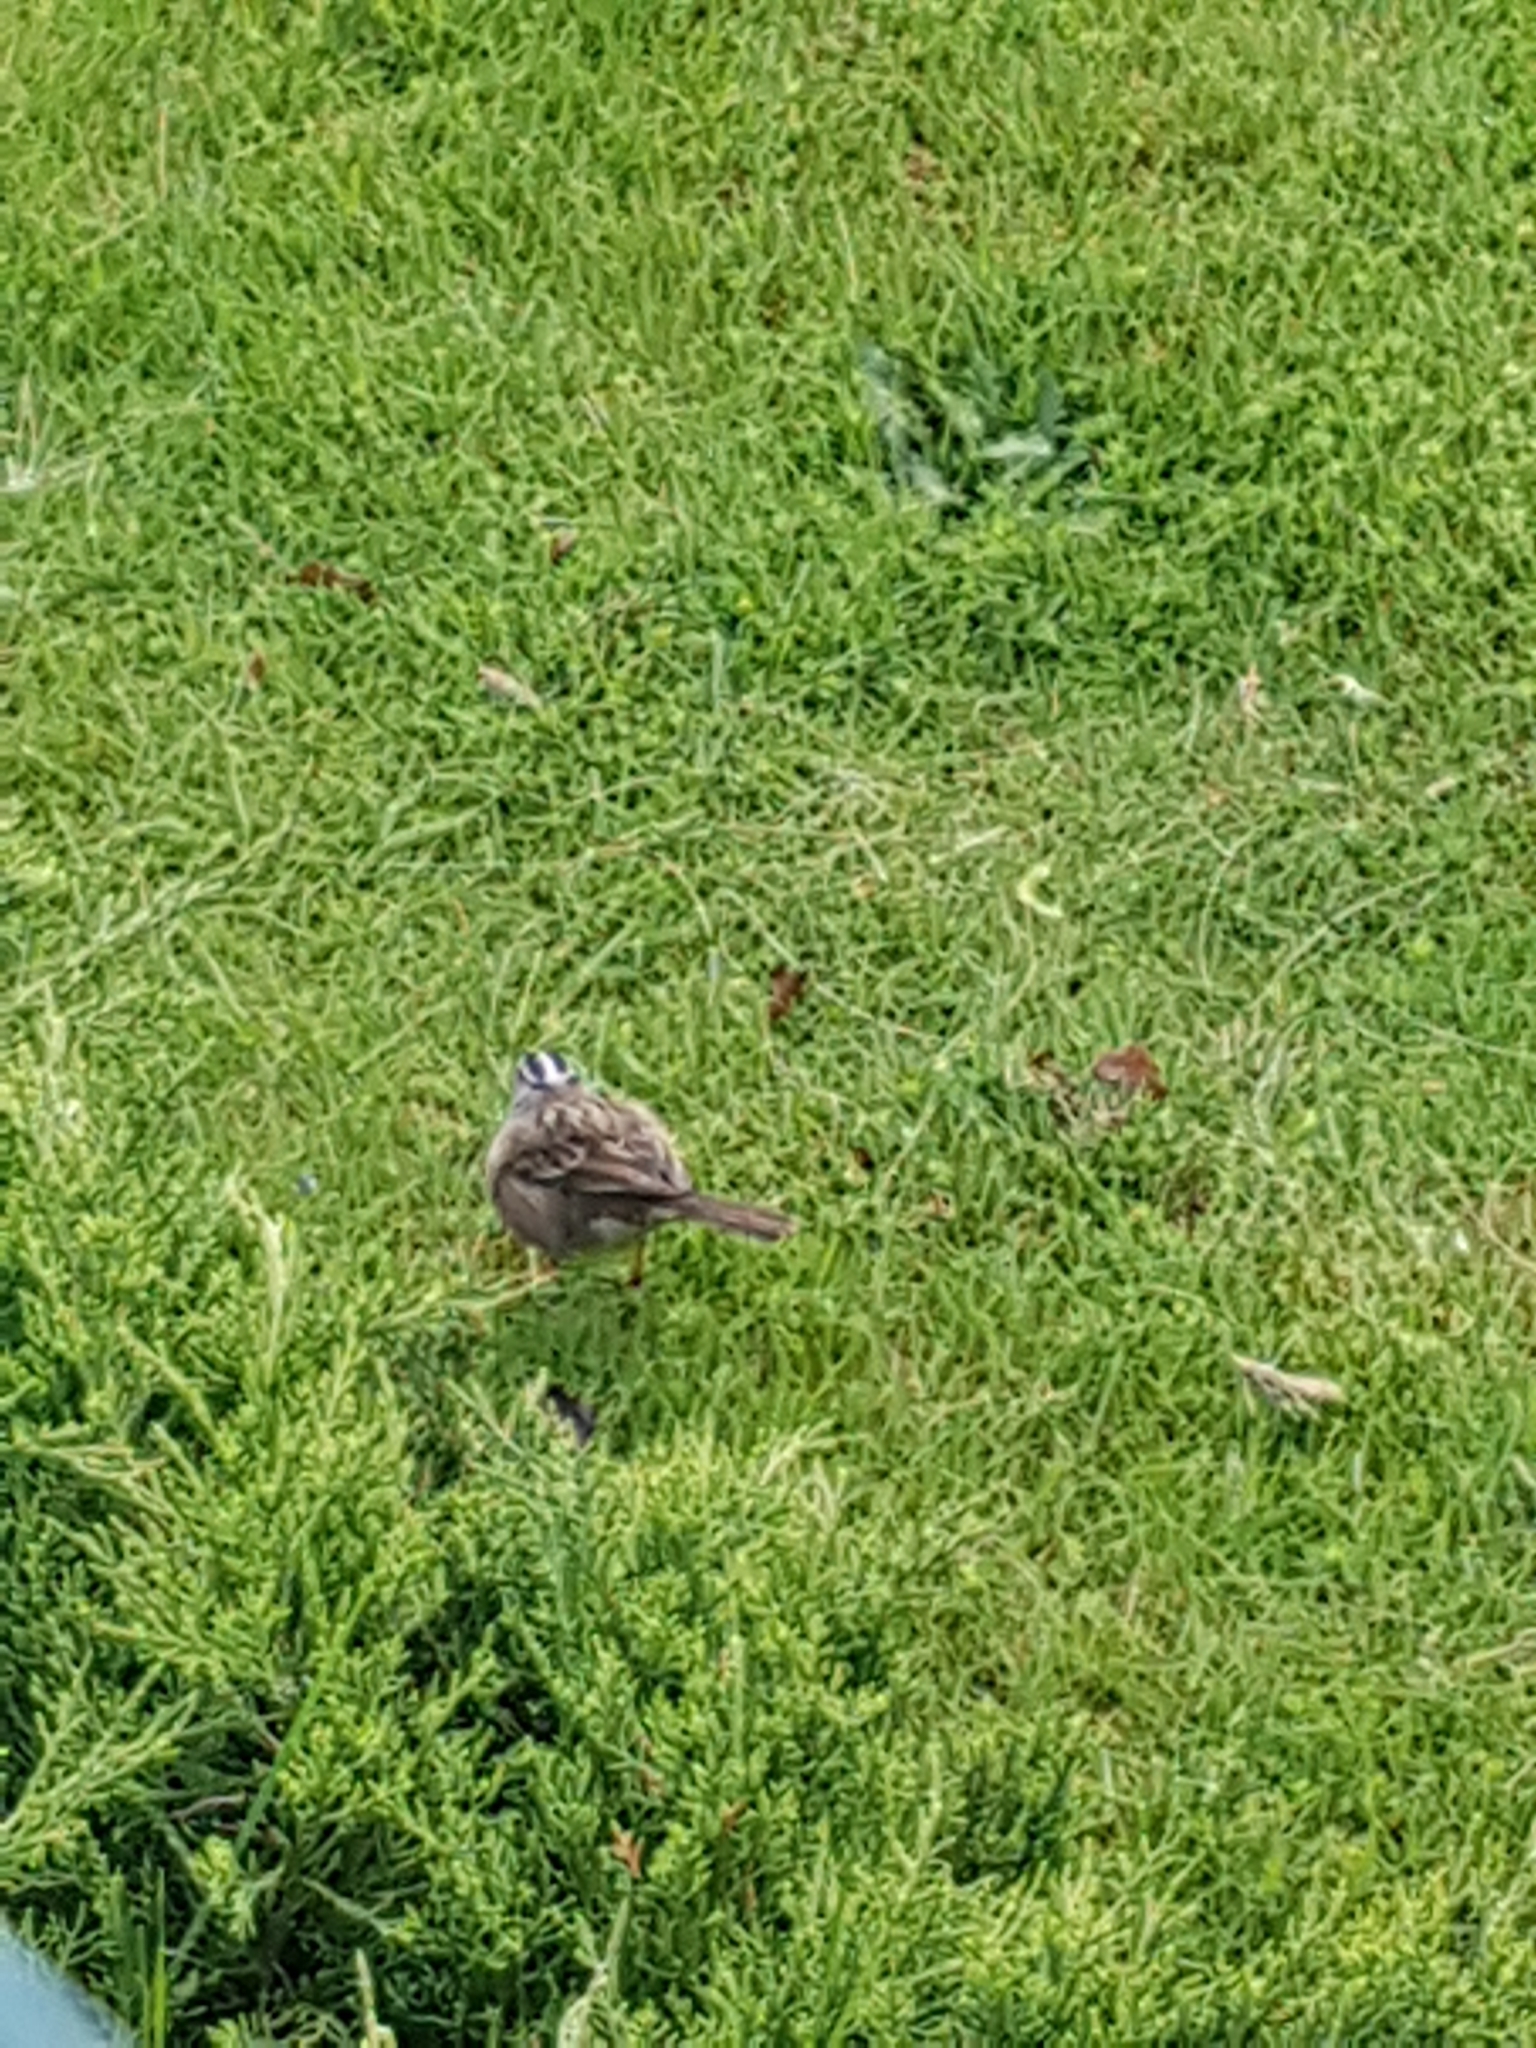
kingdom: Animalia
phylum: Chordata
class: Aves
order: Passeriformes
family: Passerellidae
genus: Zonotrichia
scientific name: Zonotrichia leucophrys
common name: White-crowned sparrow
